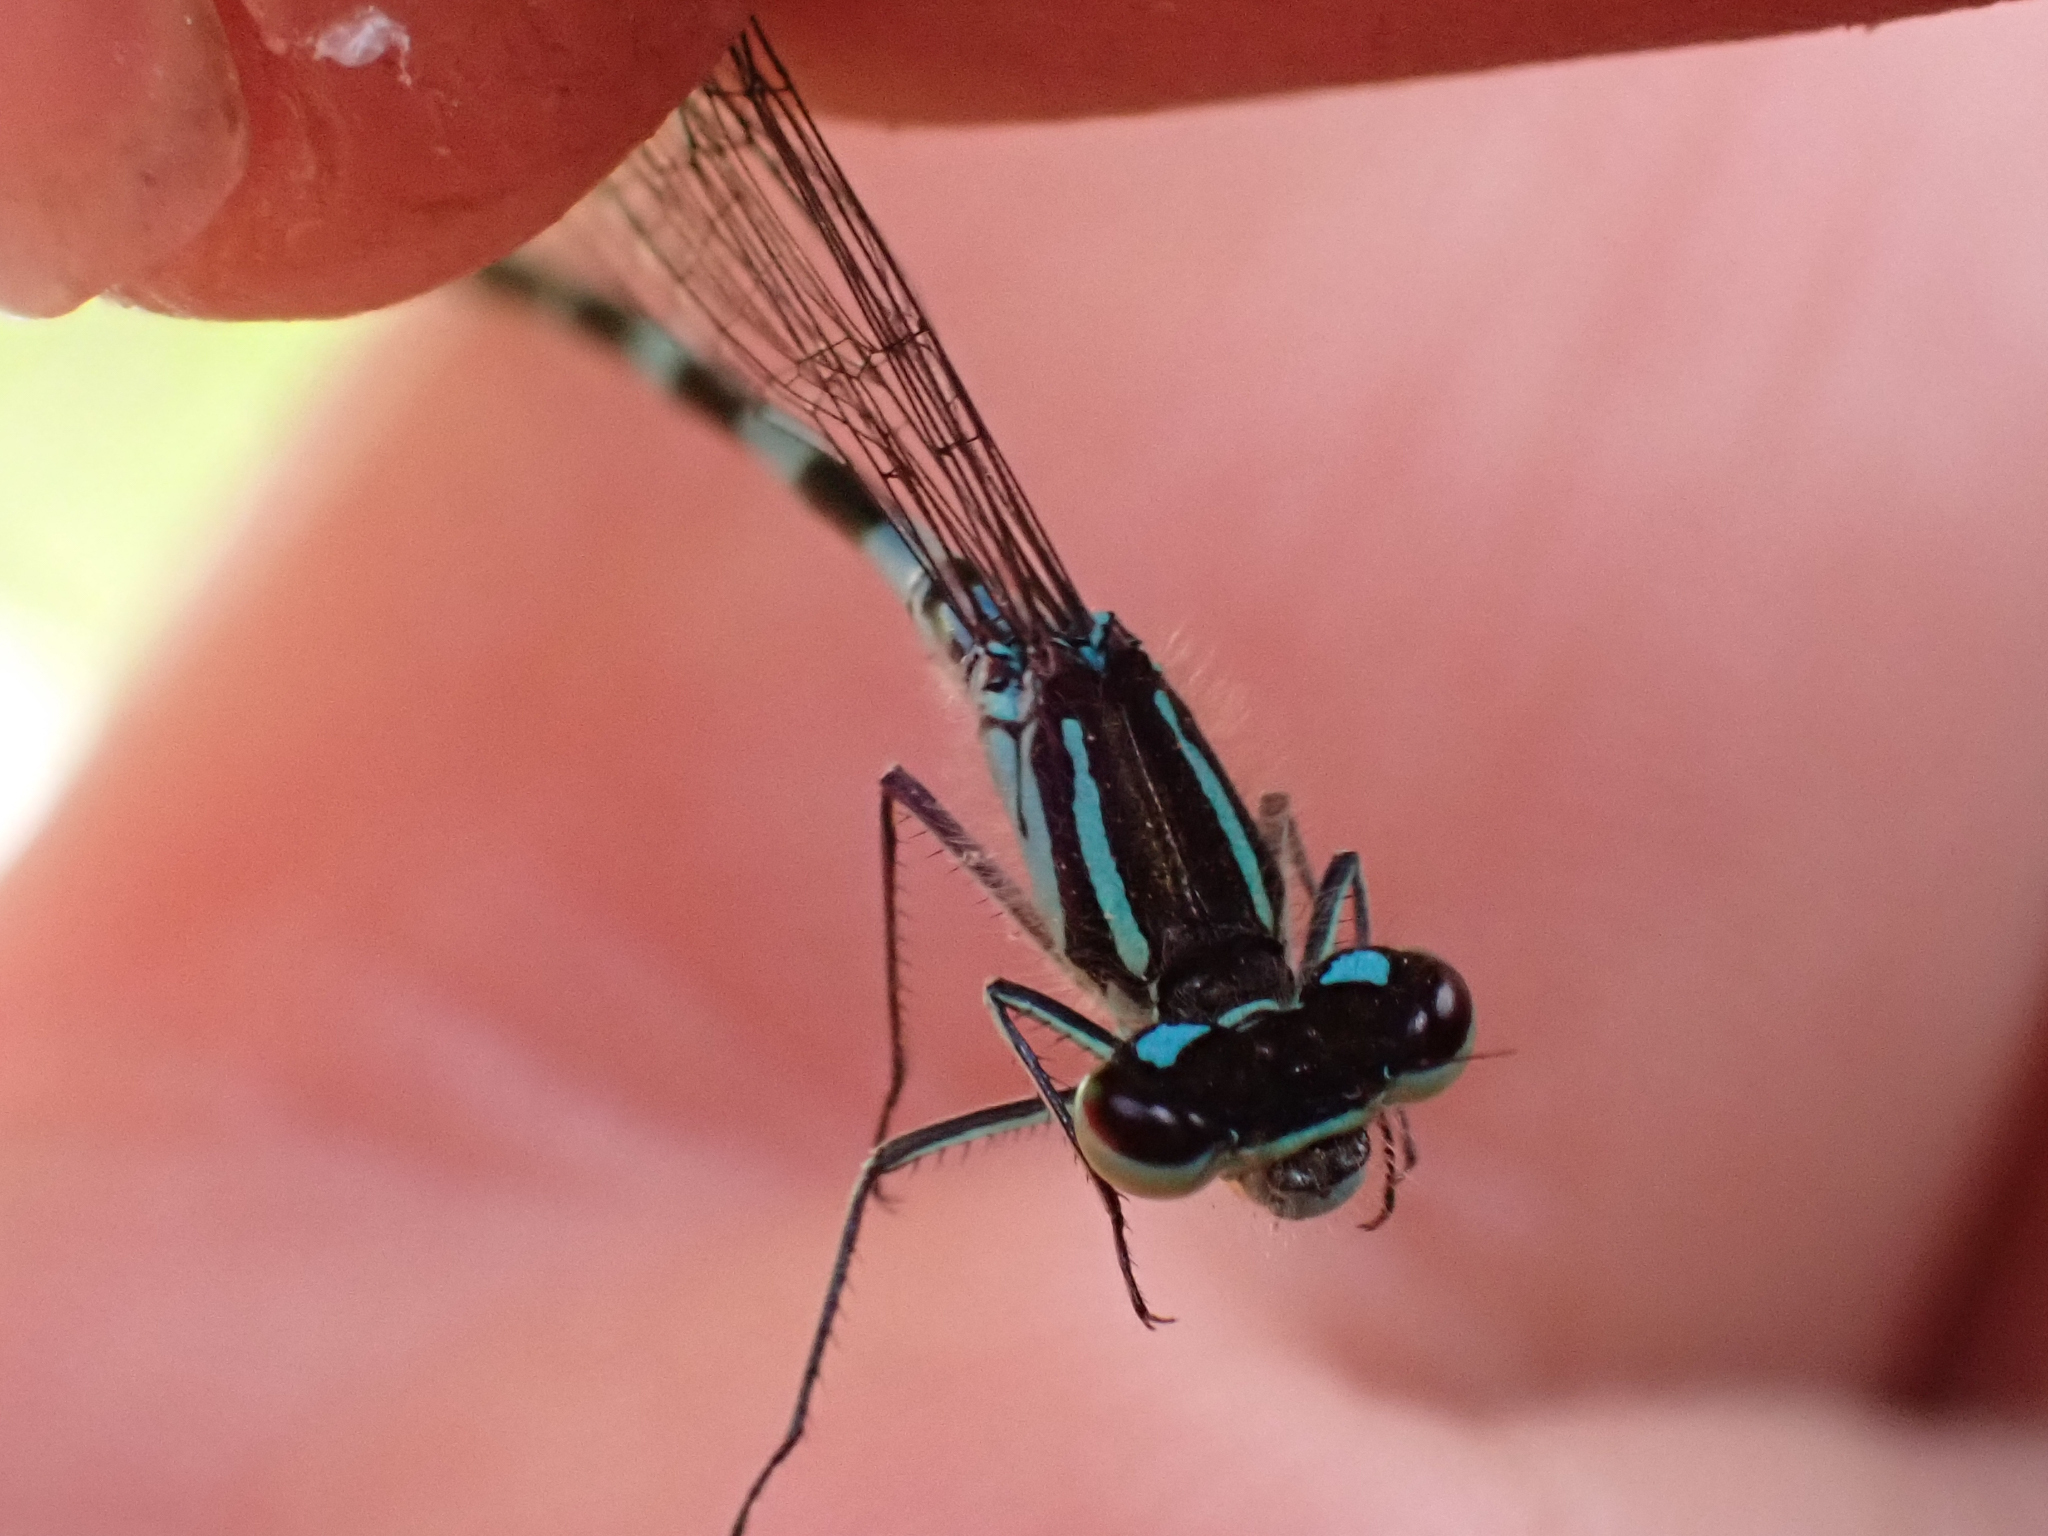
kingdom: Animalia
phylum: Arthropoda
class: Insecta
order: Odonata
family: Coenagrionidae
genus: Coenagrion
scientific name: Coenagrion resolutum
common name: Taiga bluet
